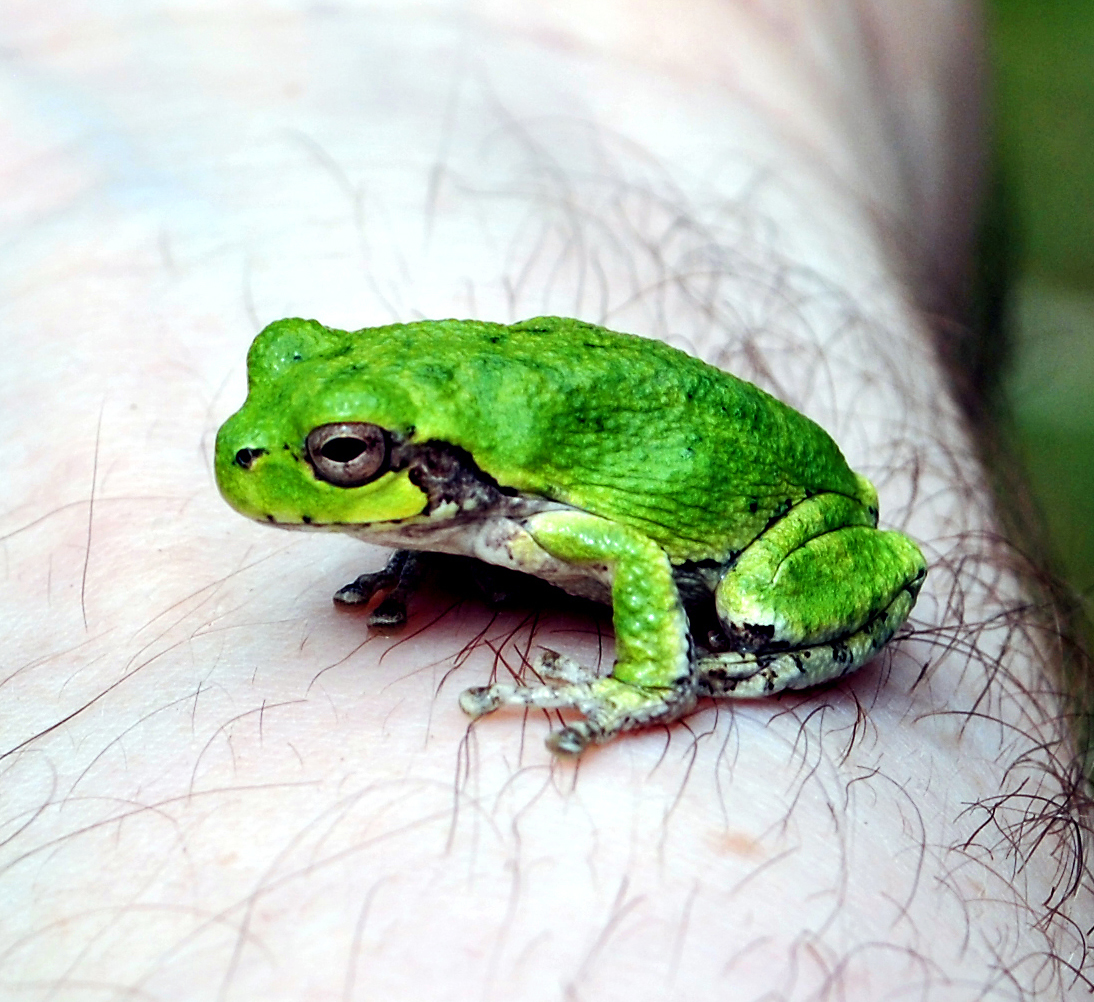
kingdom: Animalia
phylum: Chordata
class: Amphibia
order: Anura
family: Hylidae
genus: Hyla
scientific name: Hyla
